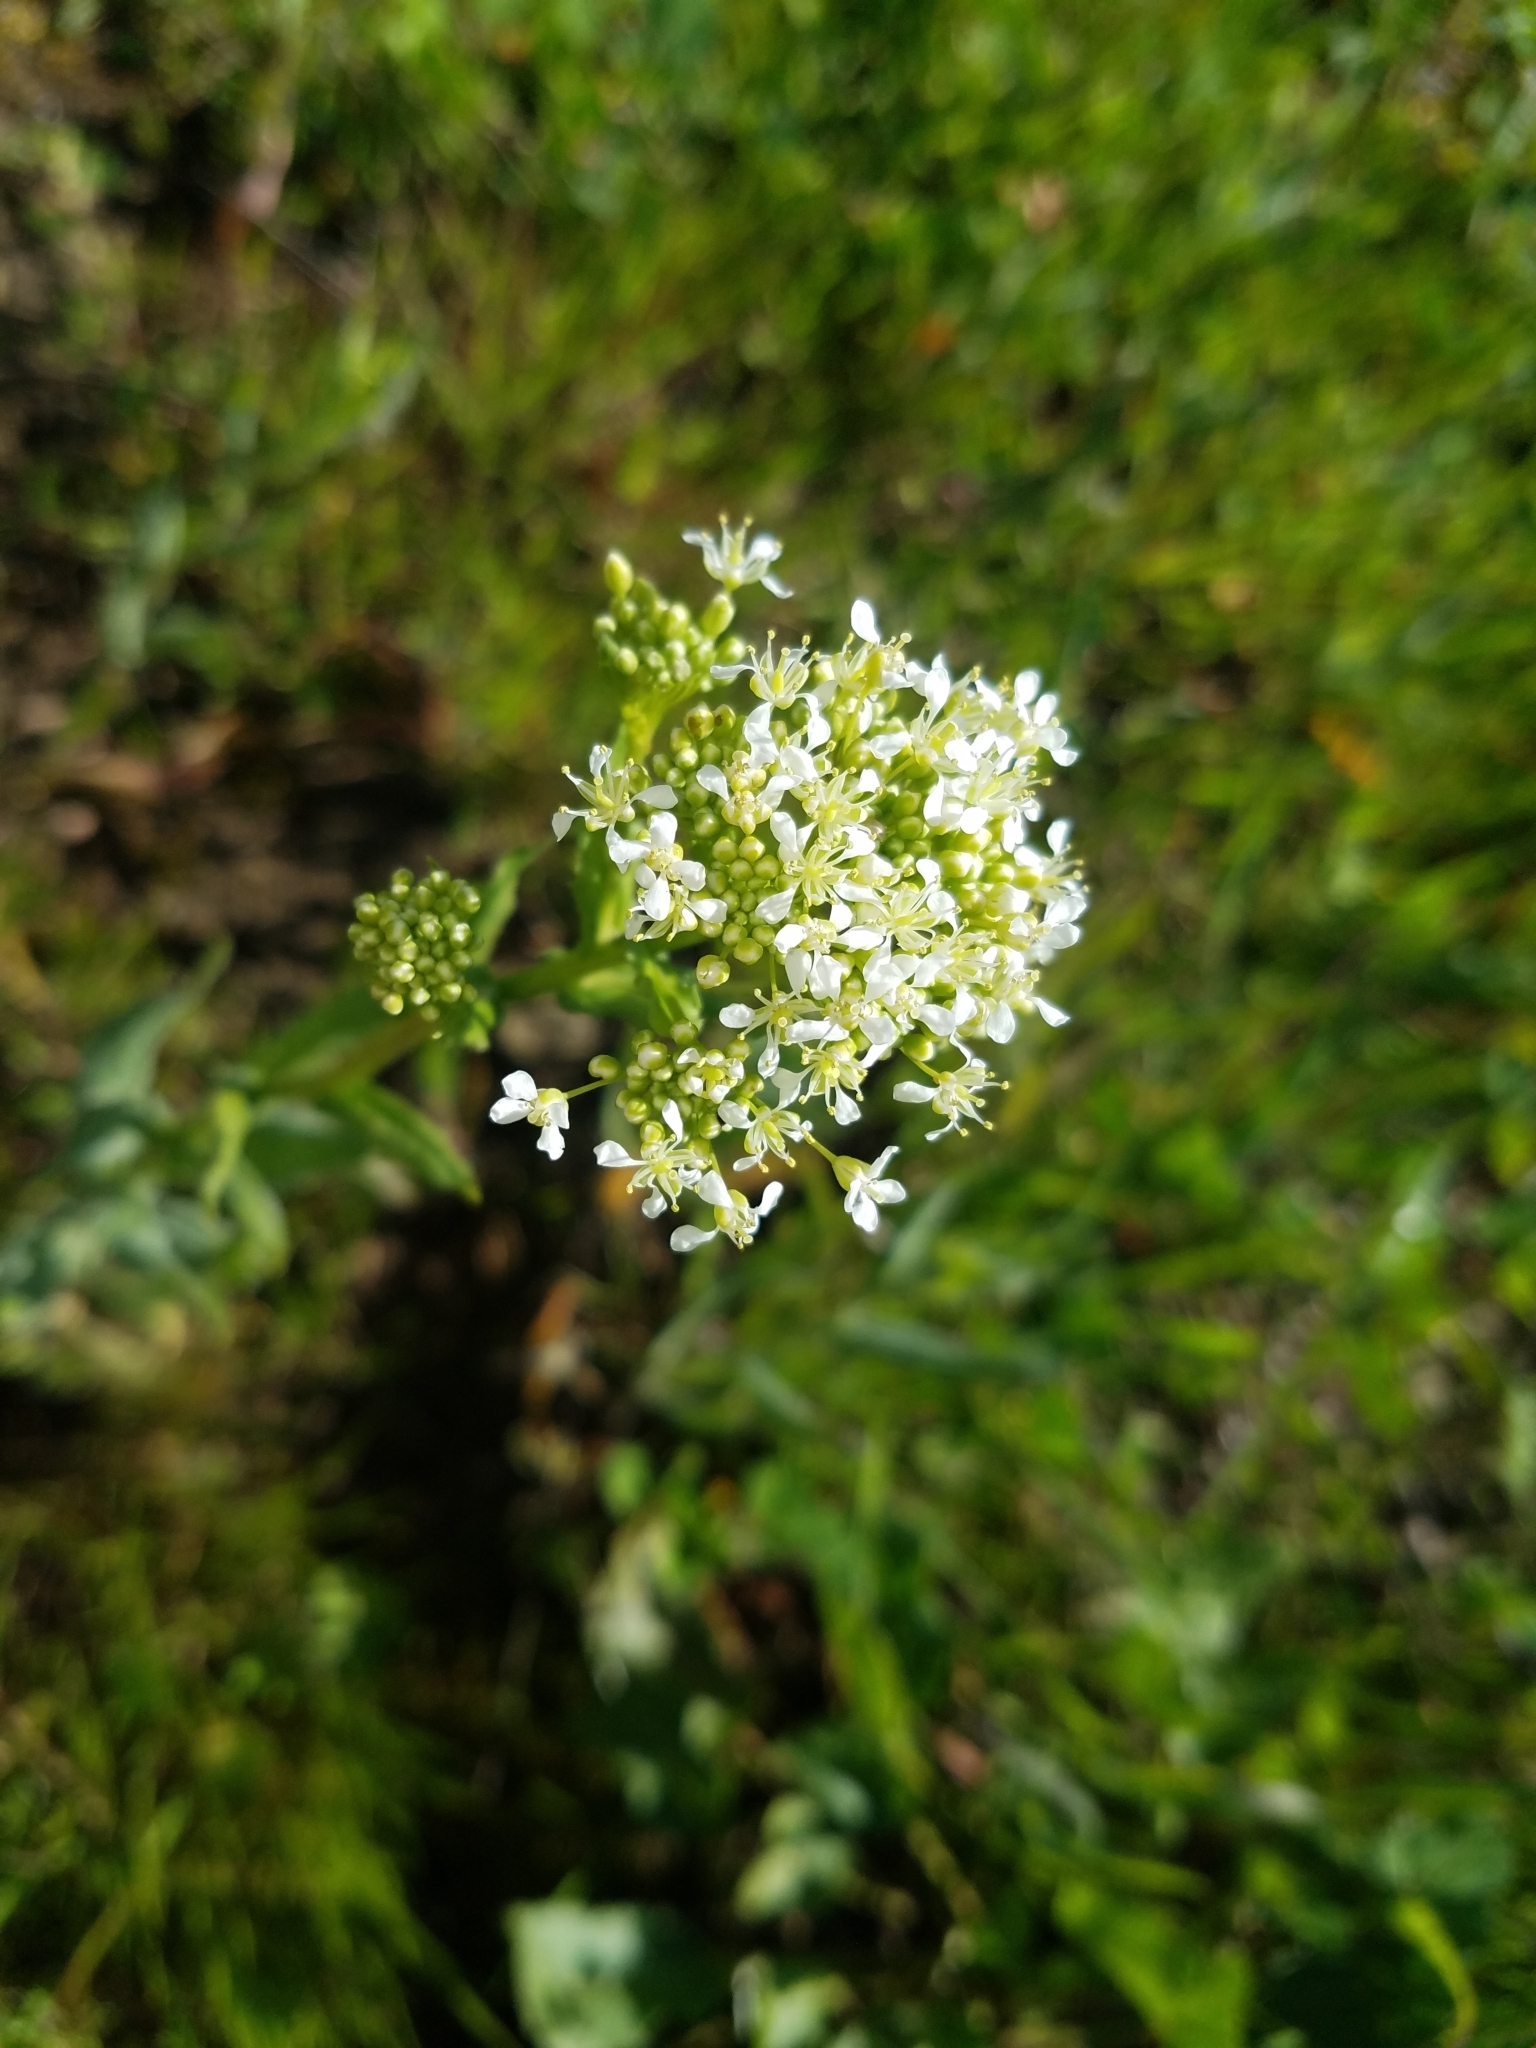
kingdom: Plantae
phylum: Tracheophyta
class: Magnoliopsida
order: Brassicales
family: Brassicaceae
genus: Lepidium
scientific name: Lepidium
